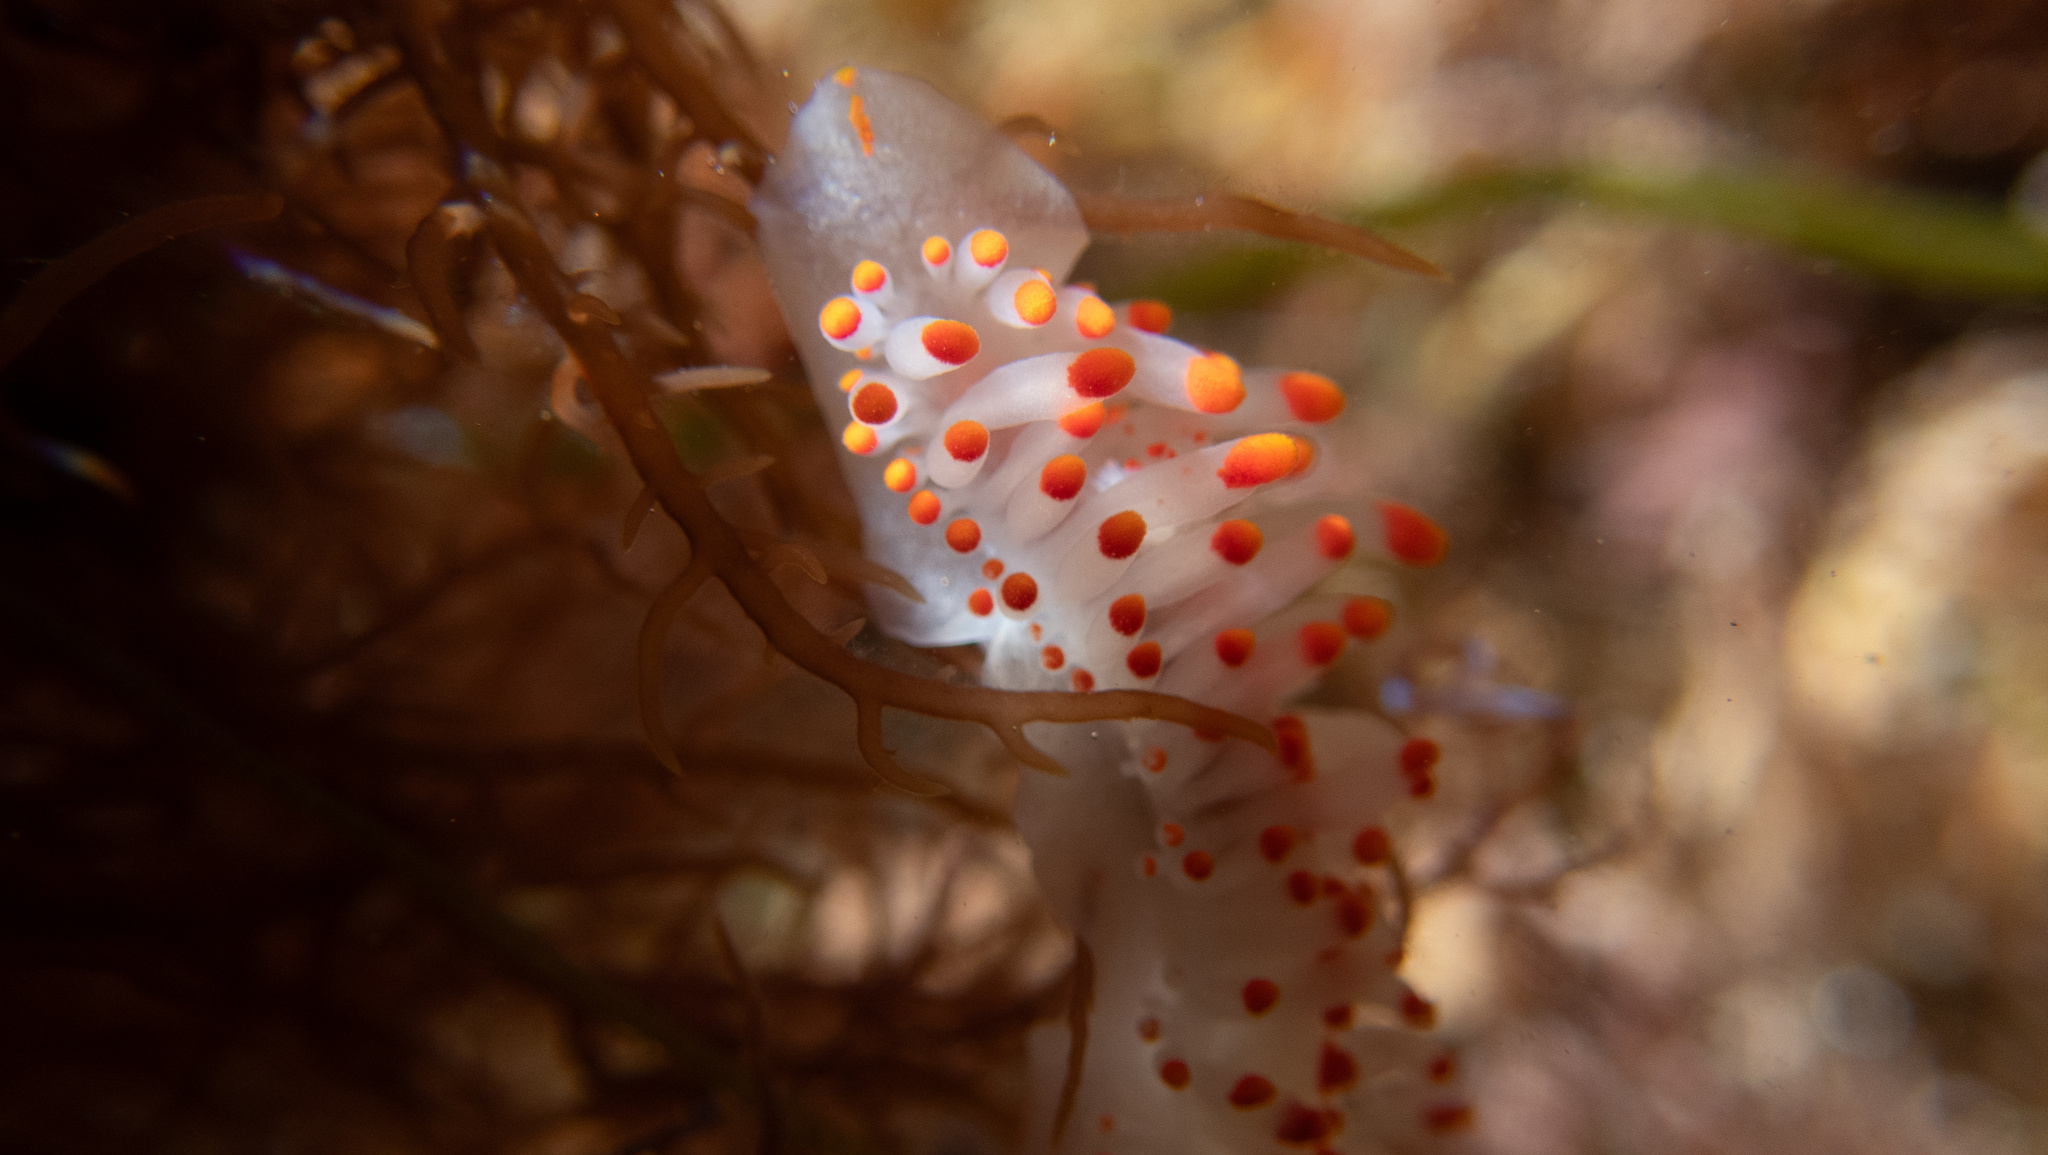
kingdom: Animalia
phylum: Mollusca
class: Gastropoda
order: Nudibranchia
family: Polyceridae
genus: Limacia
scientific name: Limacia mcdonaldi
